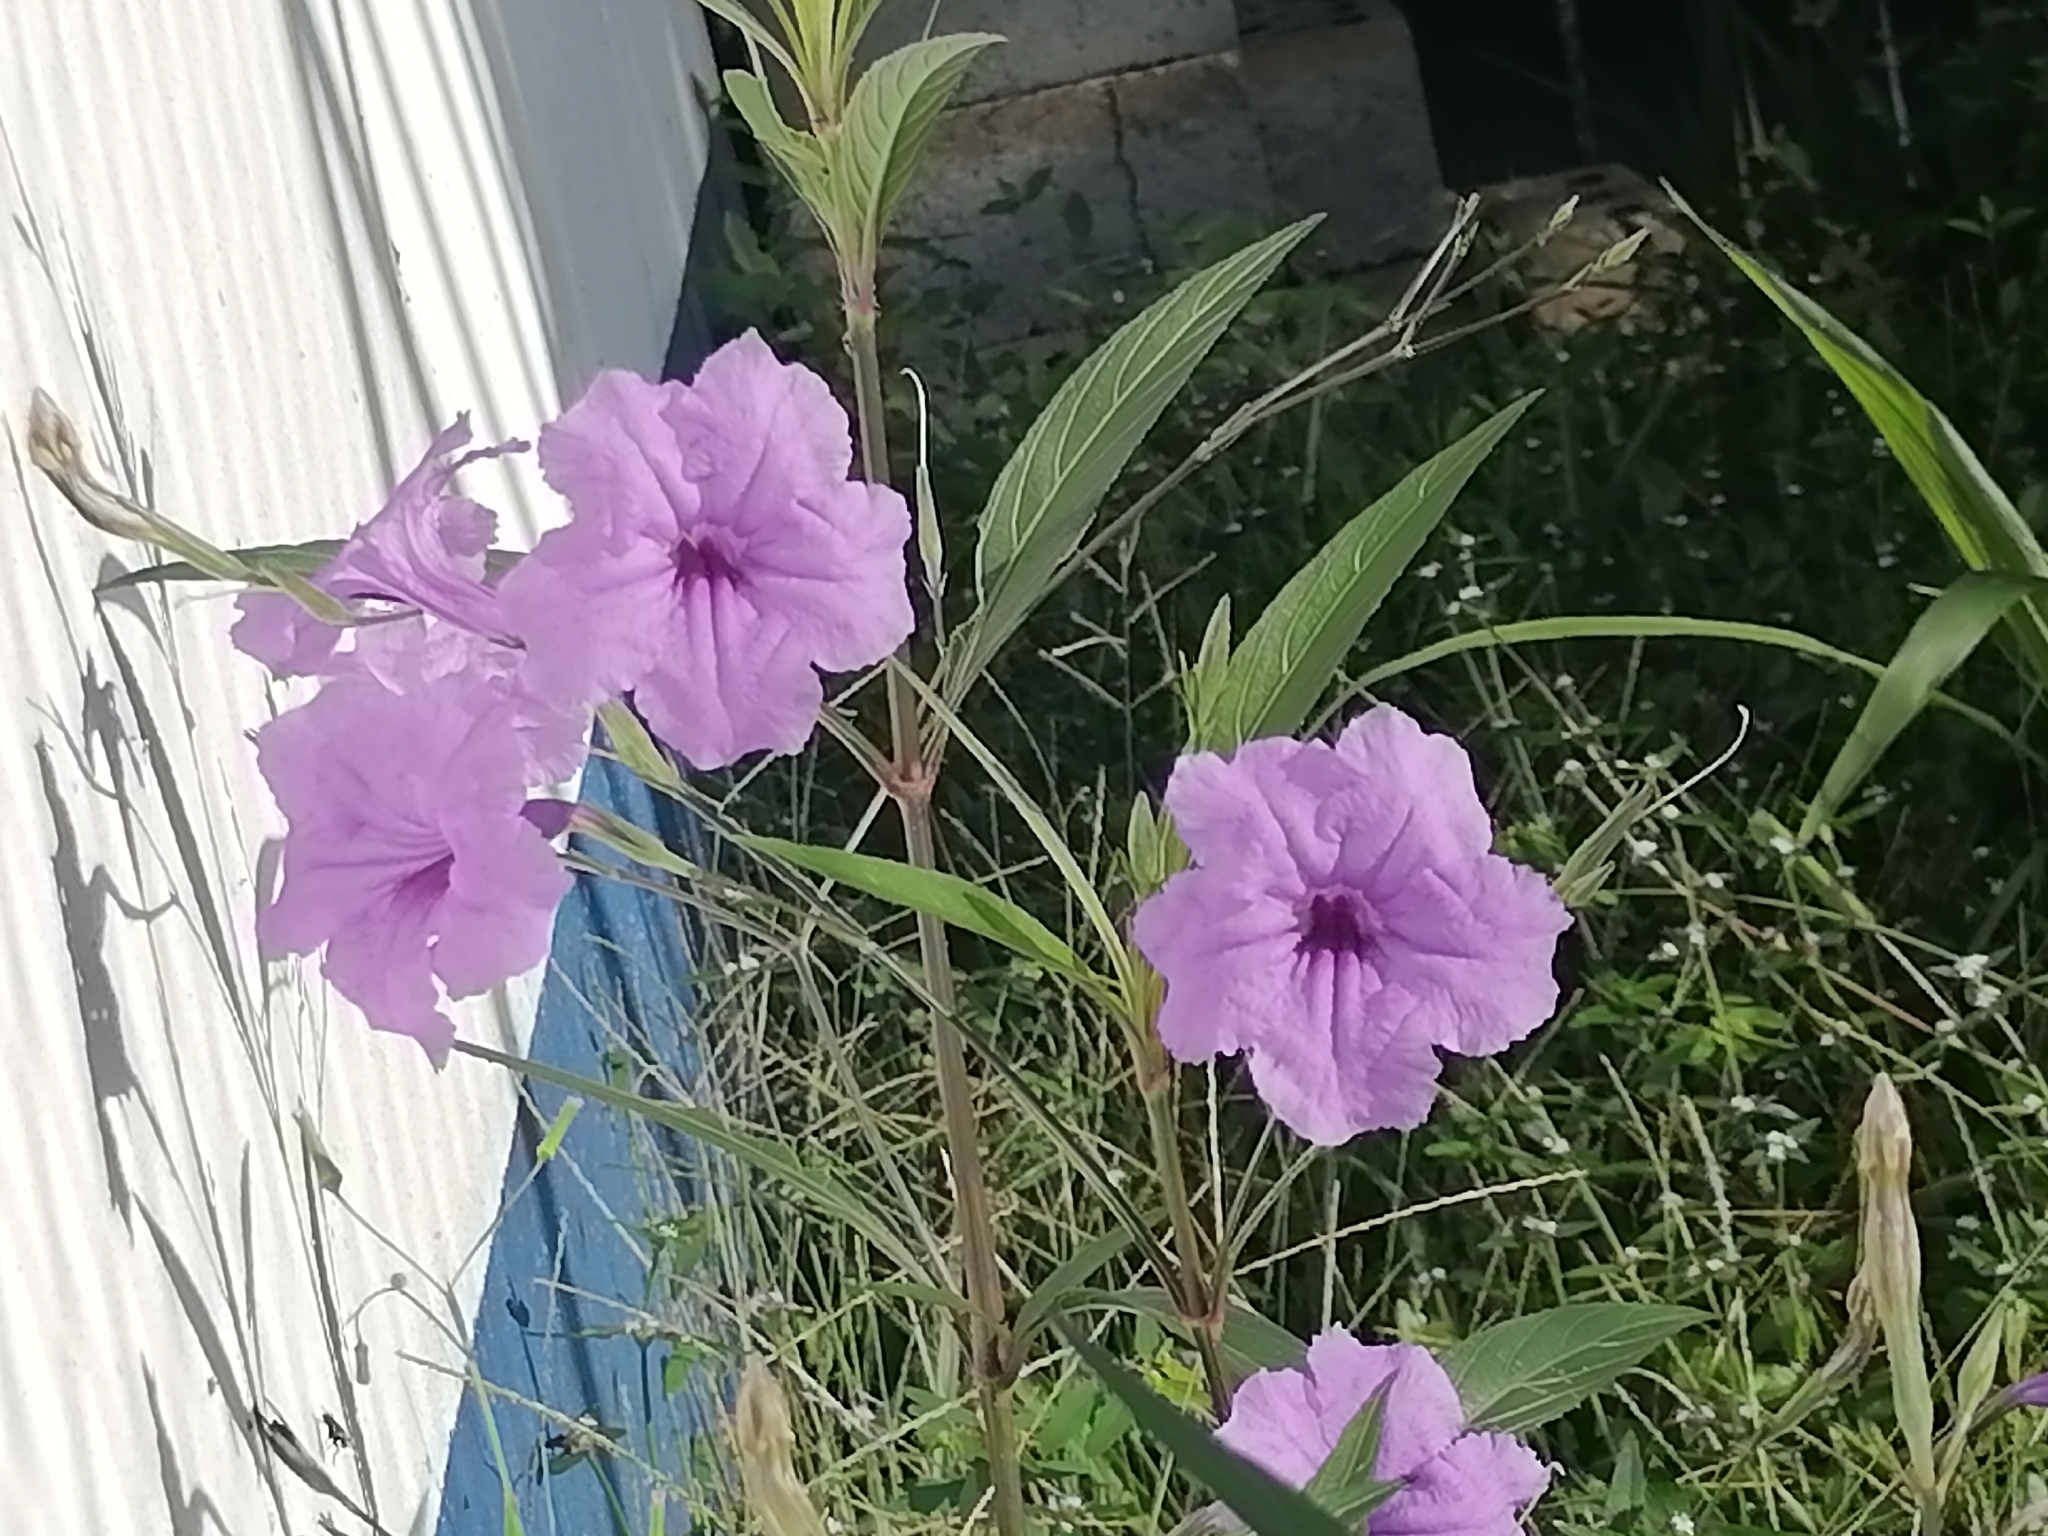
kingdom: Plantae
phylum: Tracheophyta
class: Magnoliopsida
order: Lamiales
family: Acanthaceae
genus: Ruellia
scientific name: Ruellia simplex
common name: Softseed wild petunia
